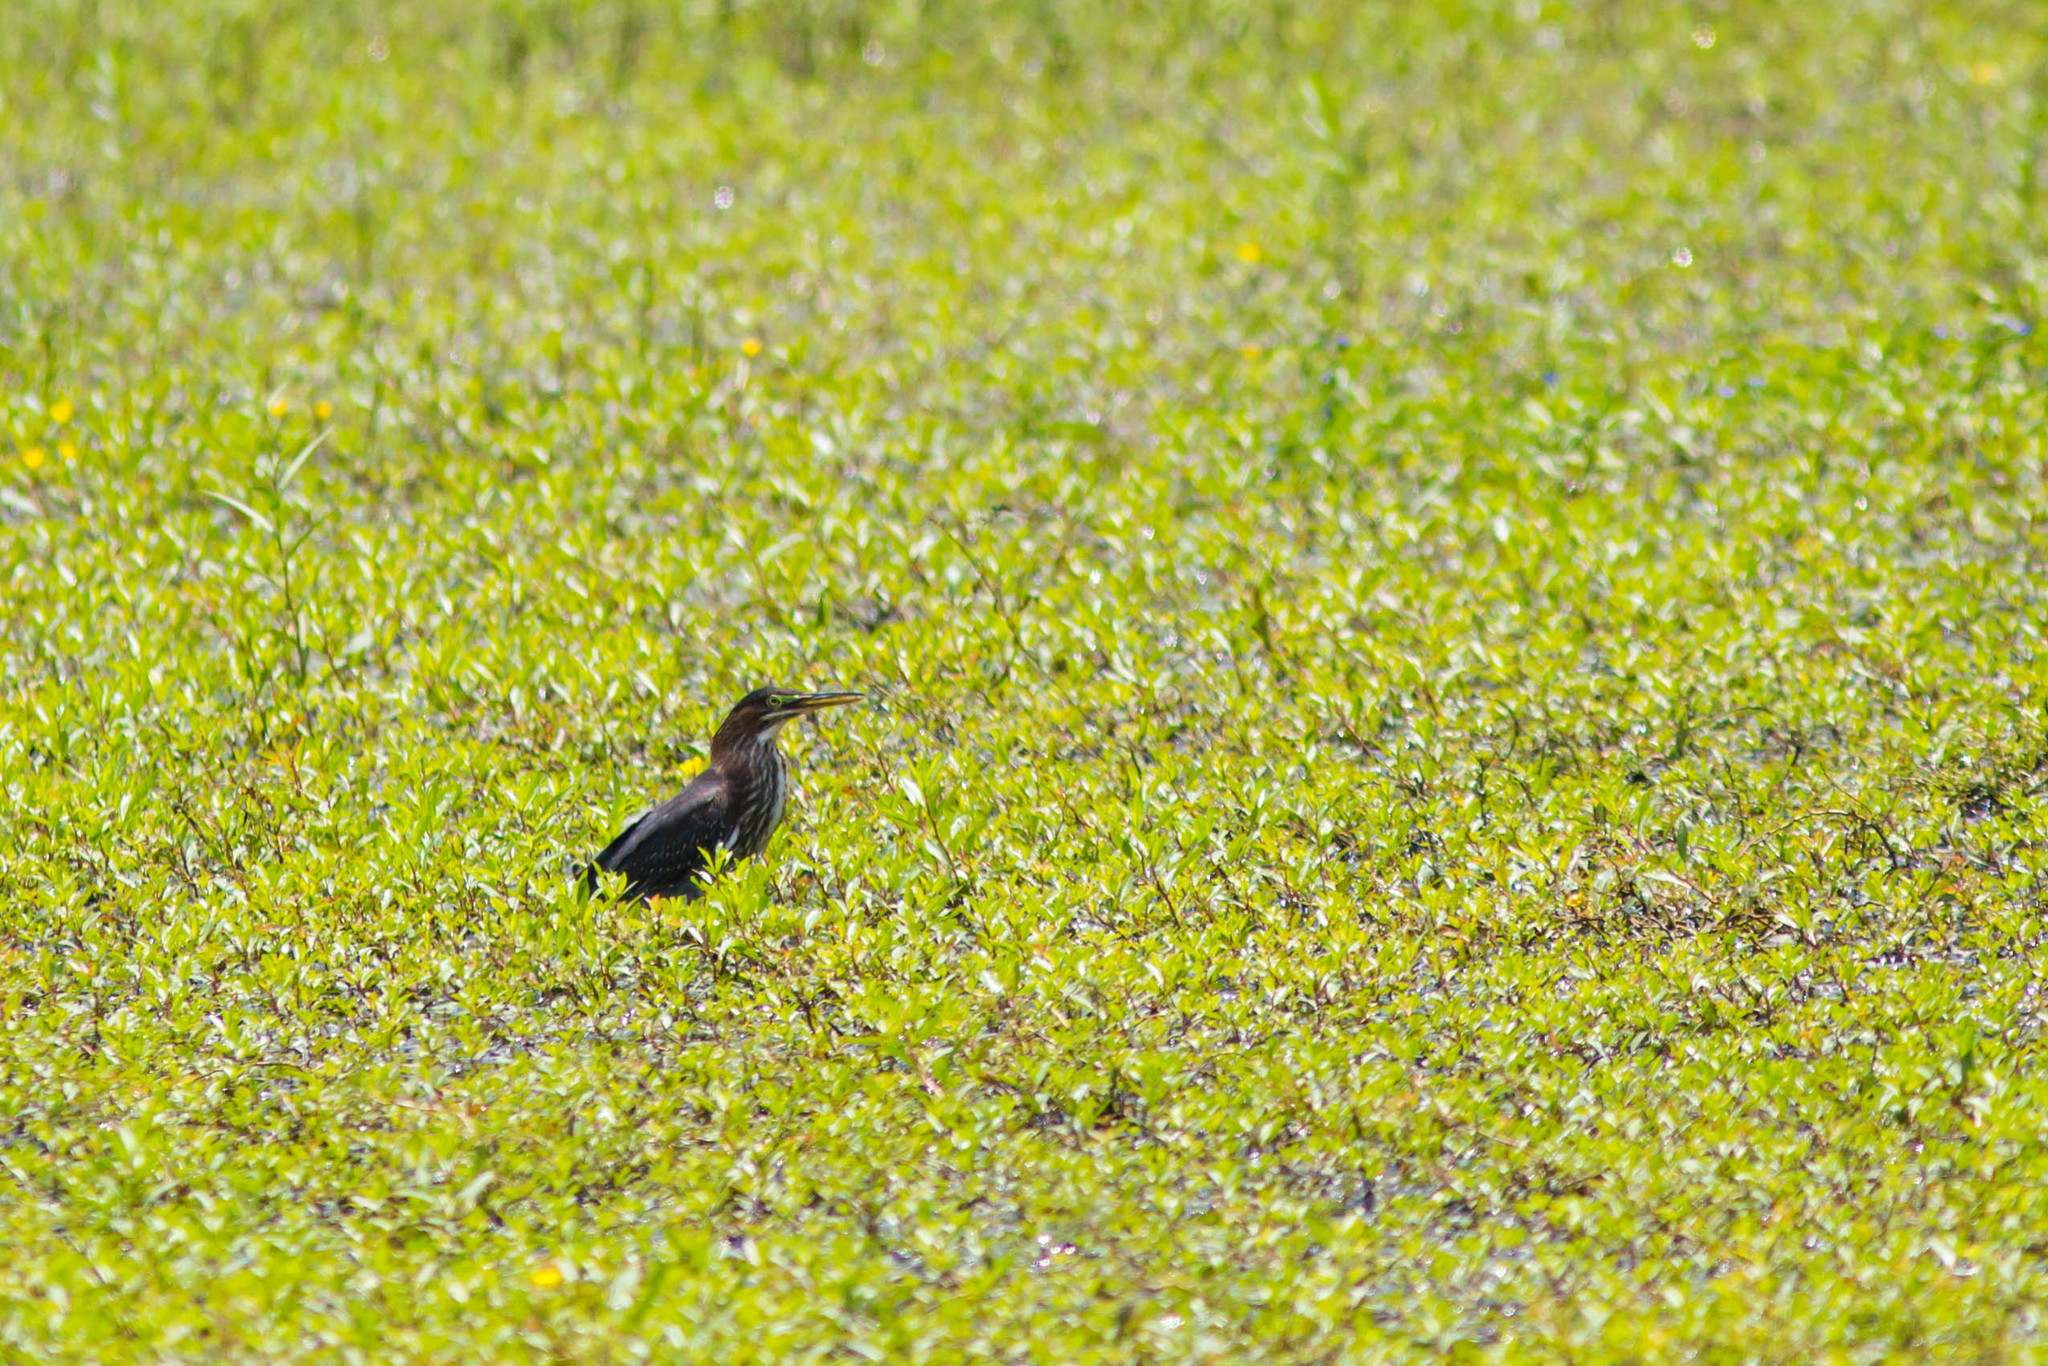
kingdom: Animalia
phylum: Chordata
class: Aves
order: Pelecaniformes
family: Ardeidae
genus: Butorides
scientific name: Butorides virescens
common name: Green heron
